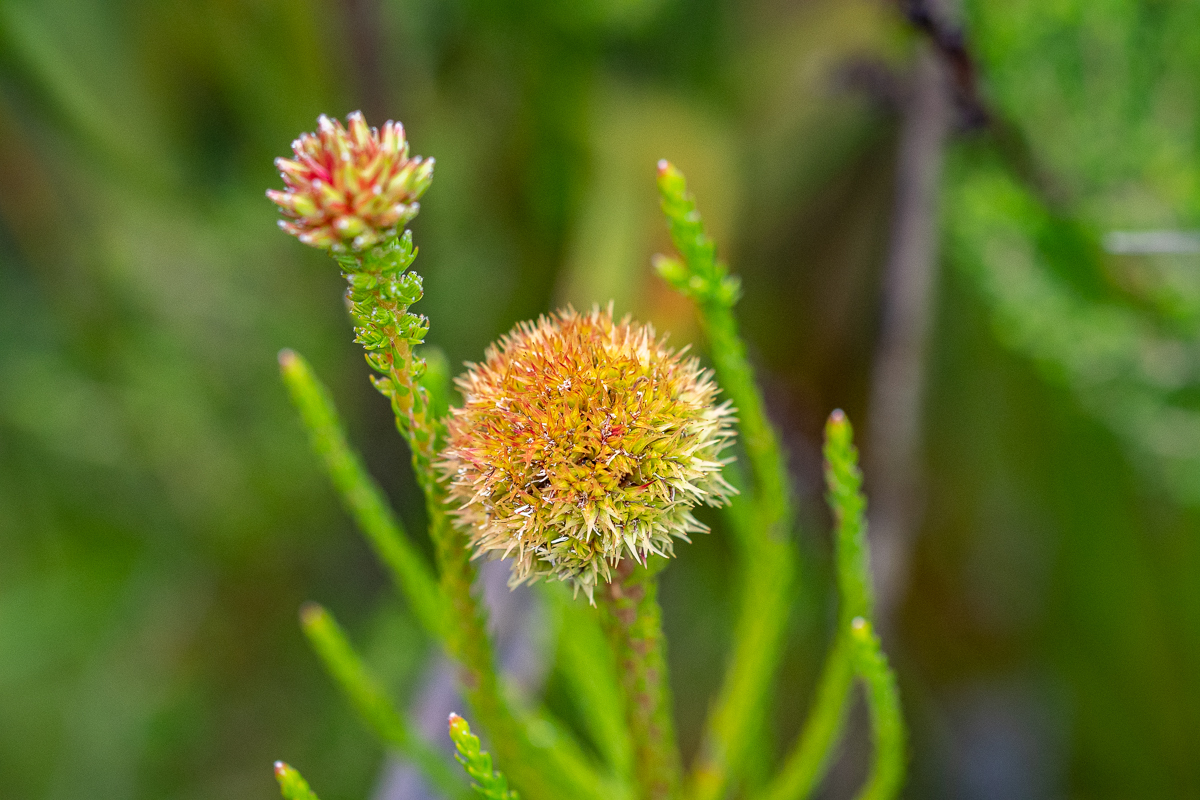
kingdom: Plantae
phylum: Tracheophyta
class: Magnoliopsida
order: Bruniales
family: Bruniaceae
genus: Brunia
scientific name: Brunia fragarioides
